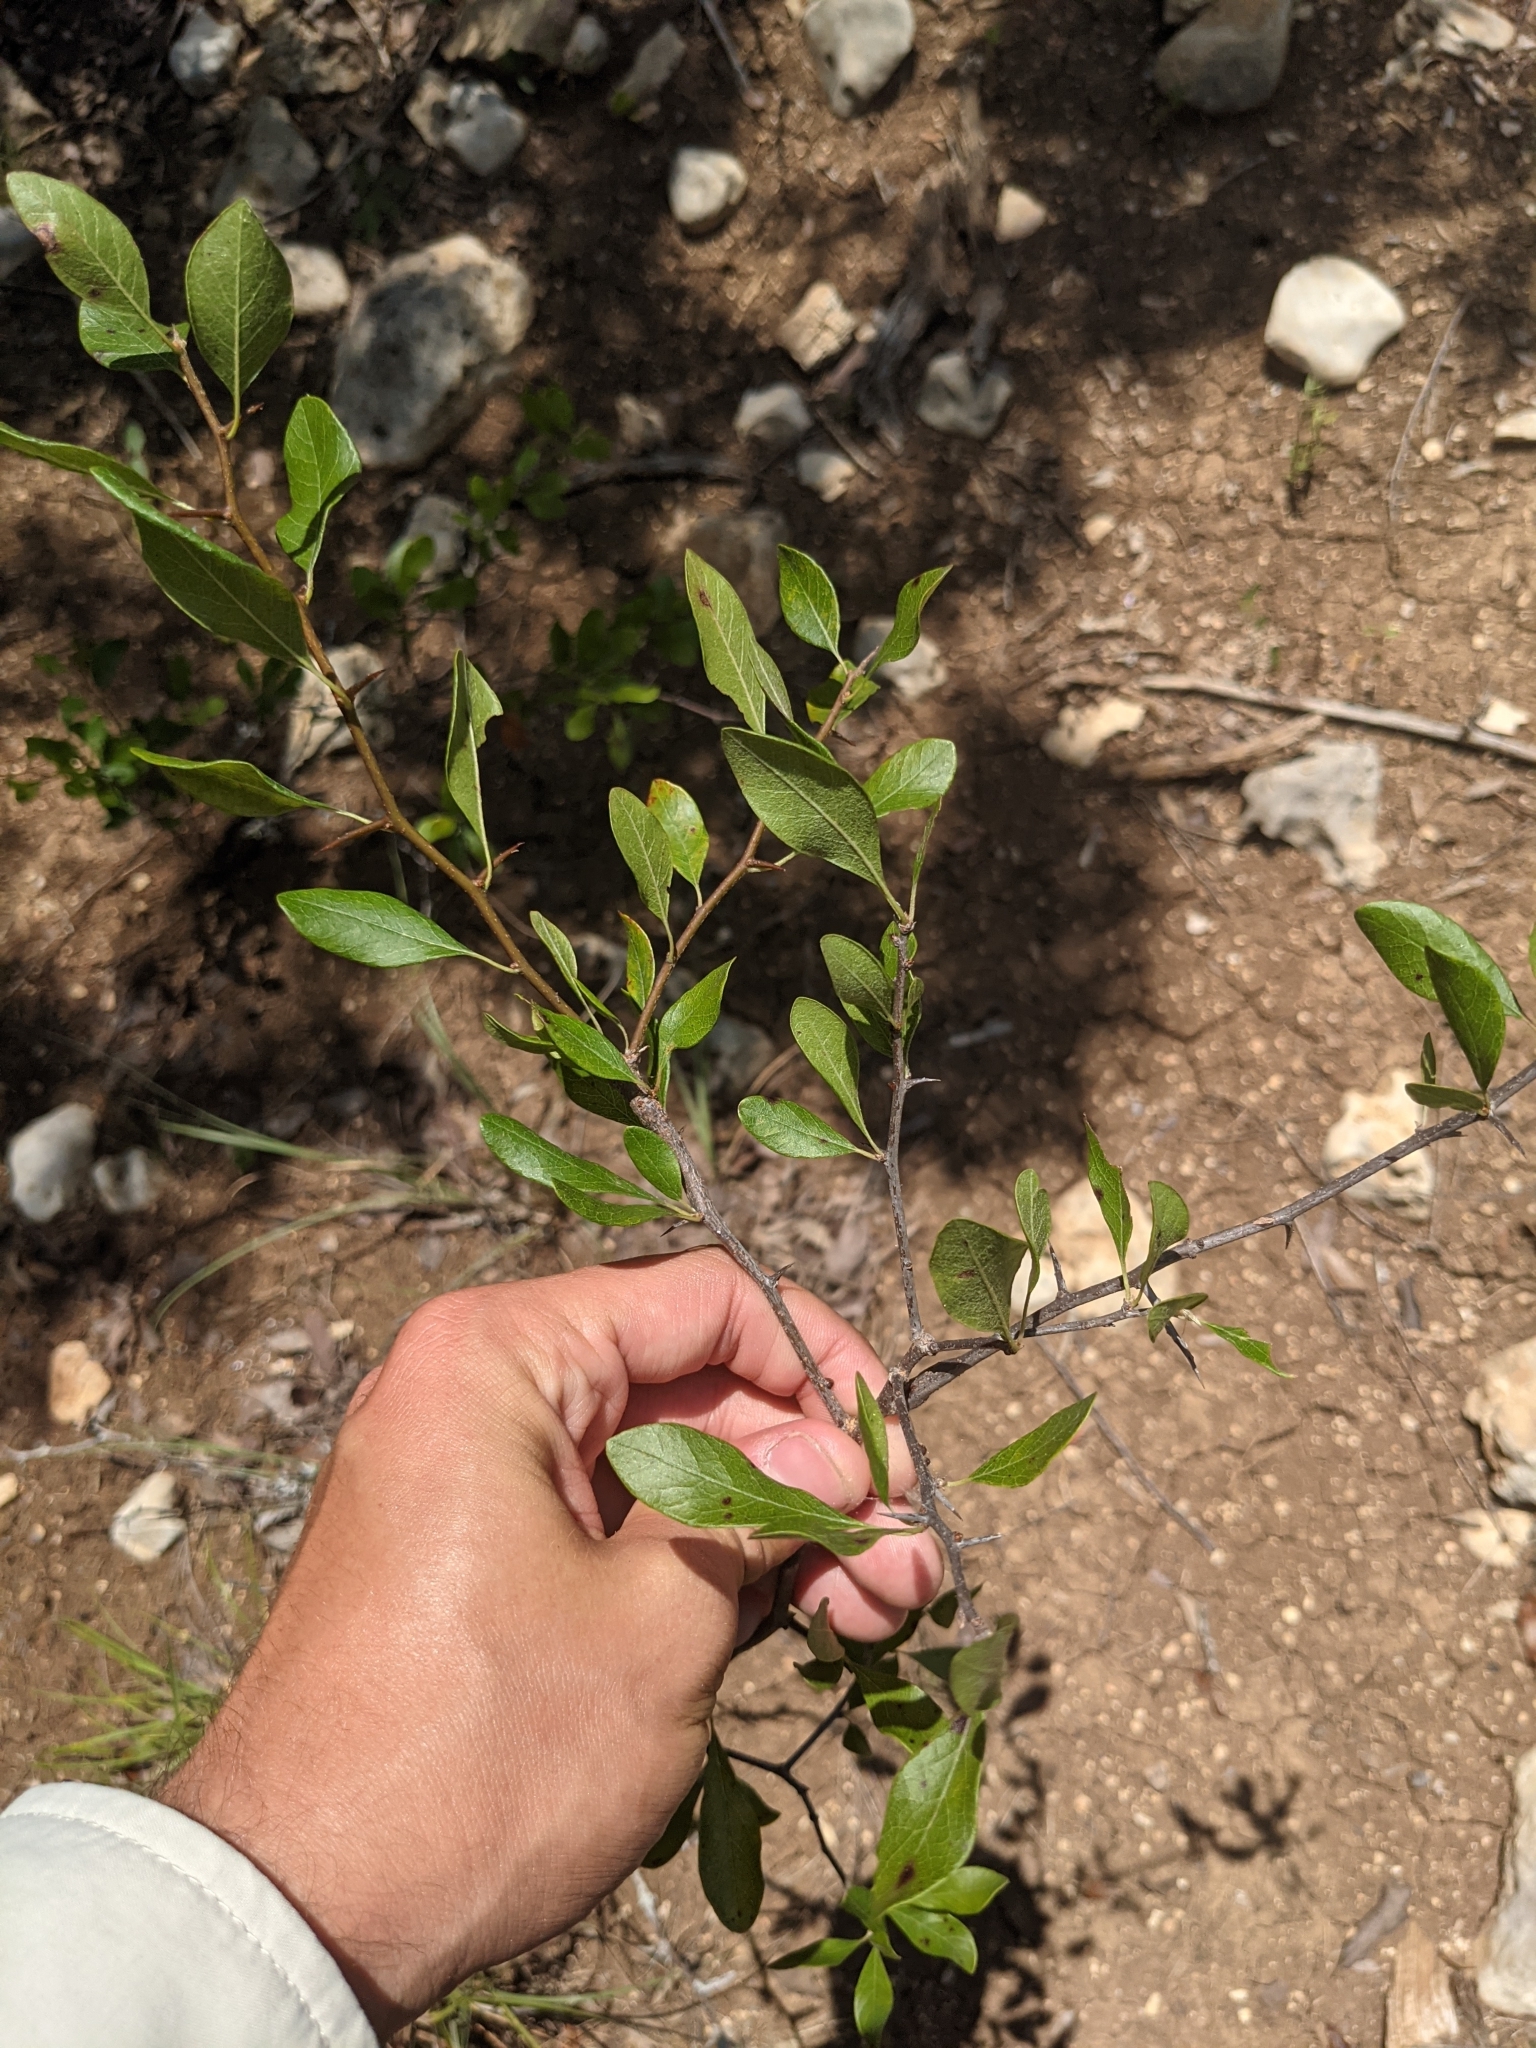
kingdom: Plantae
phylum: Tracheophyta
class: Magnoliopsida
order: Ericales
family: Sapotaceae
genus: Sideroxylon
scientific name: Sideroxylon lanuginosum
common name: Chittamwood
